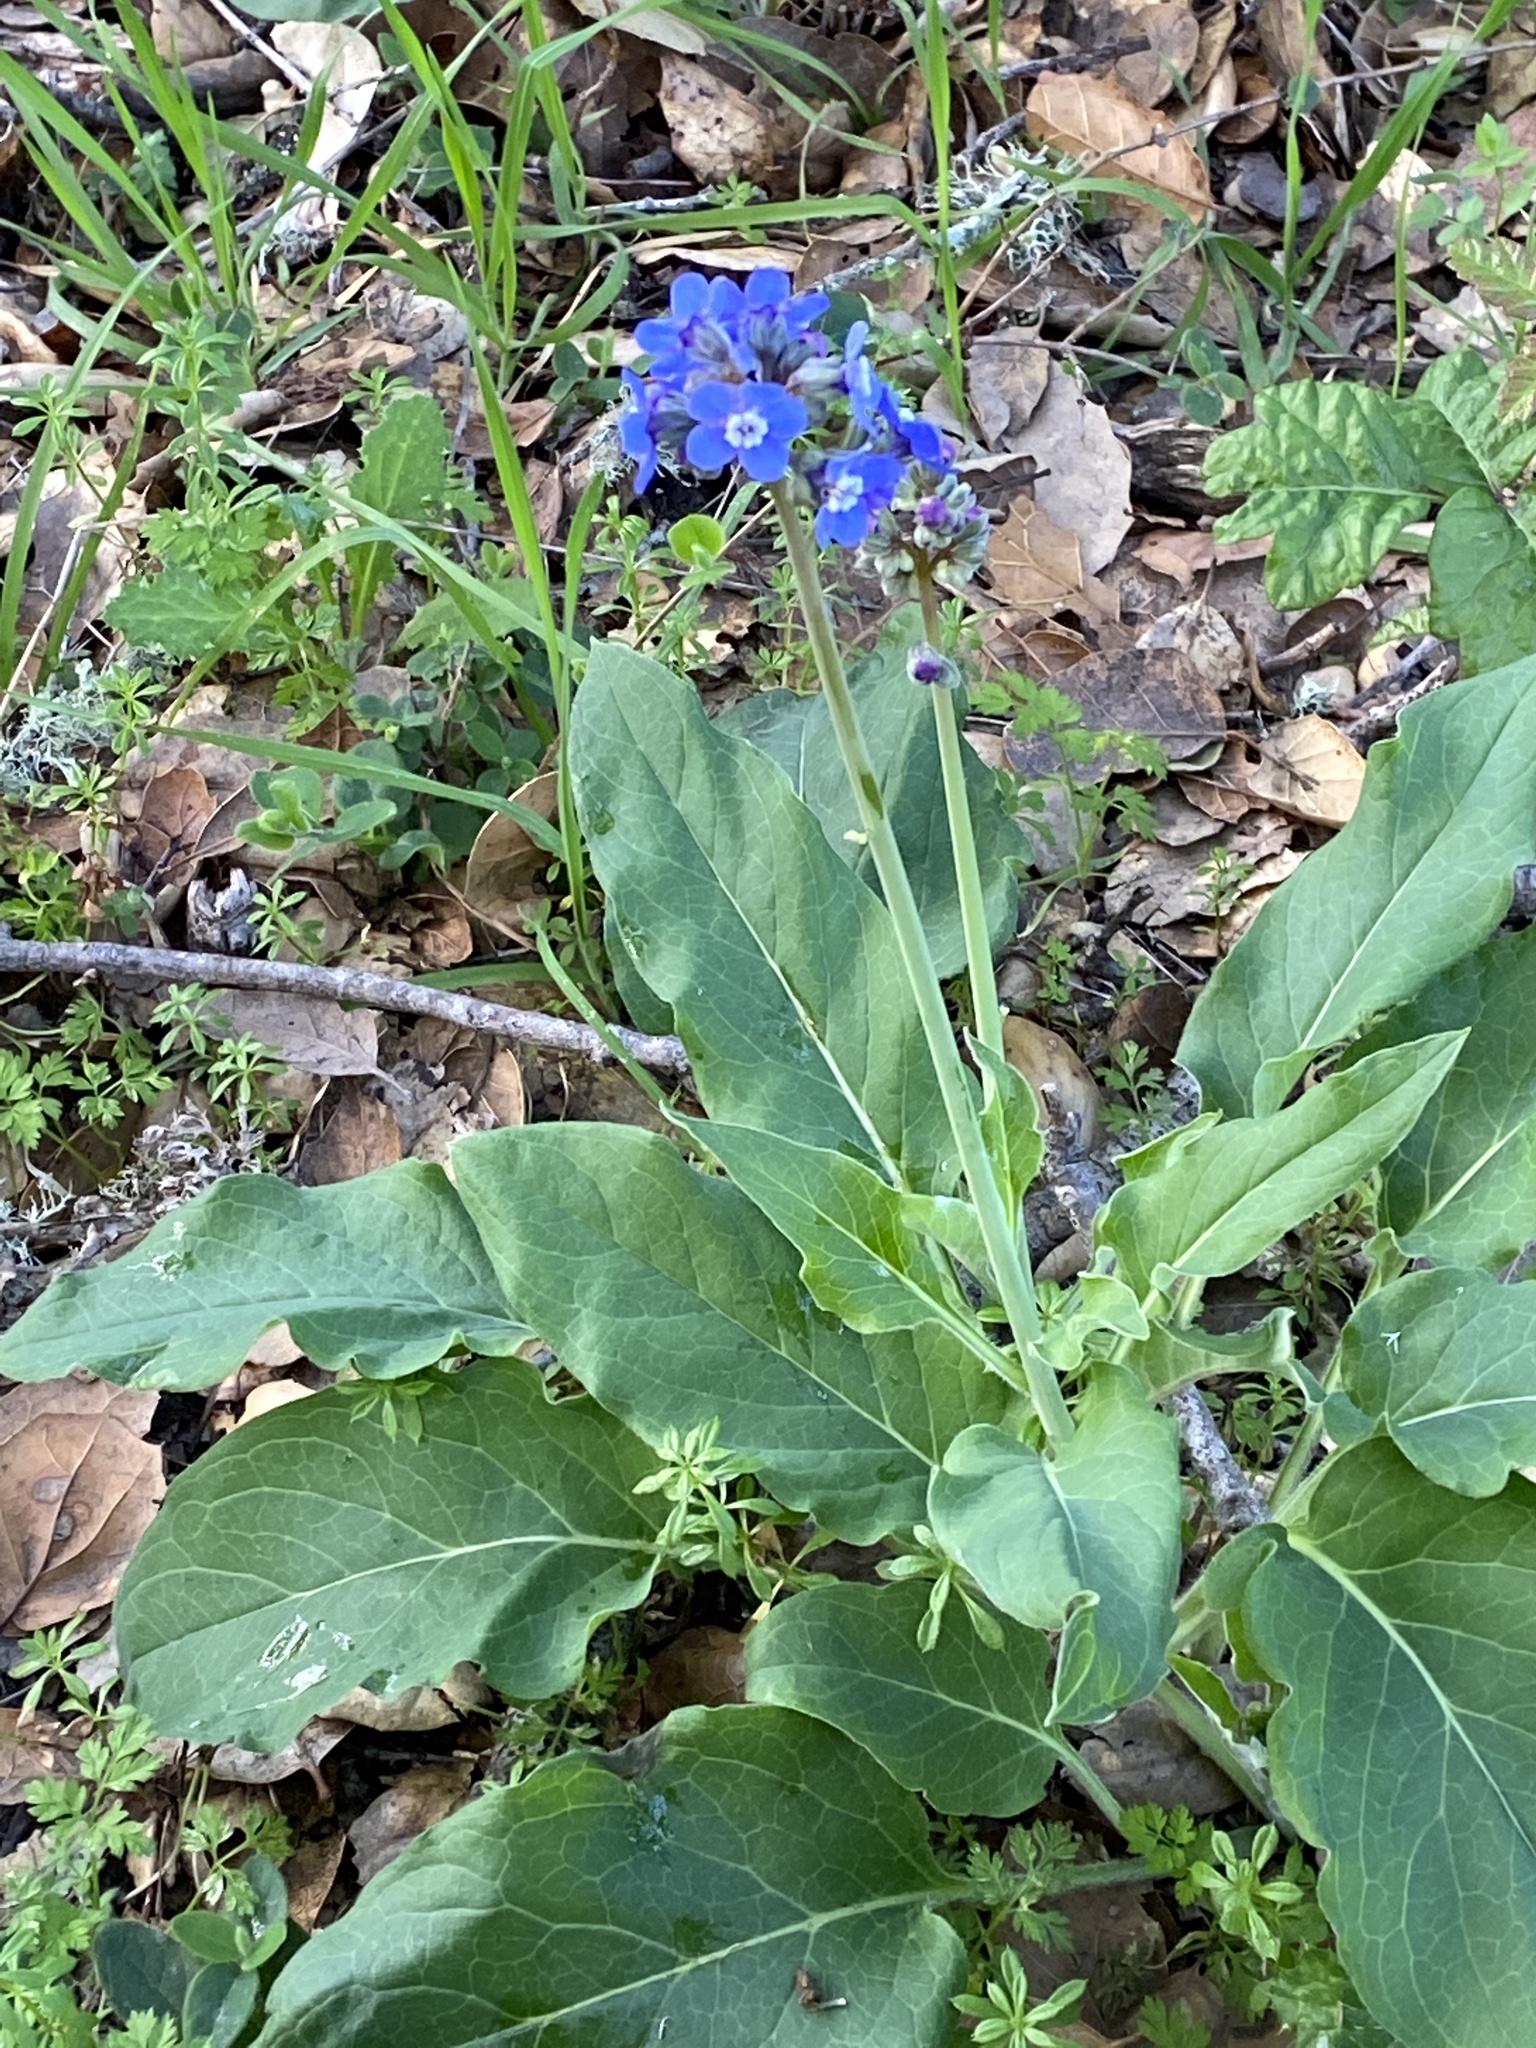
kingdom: Plantae
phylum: Tracheophyta
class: Magnoliopsida
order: Boraginales
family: Boraginaceae
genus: Adelinia
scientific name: Adelinia grande
